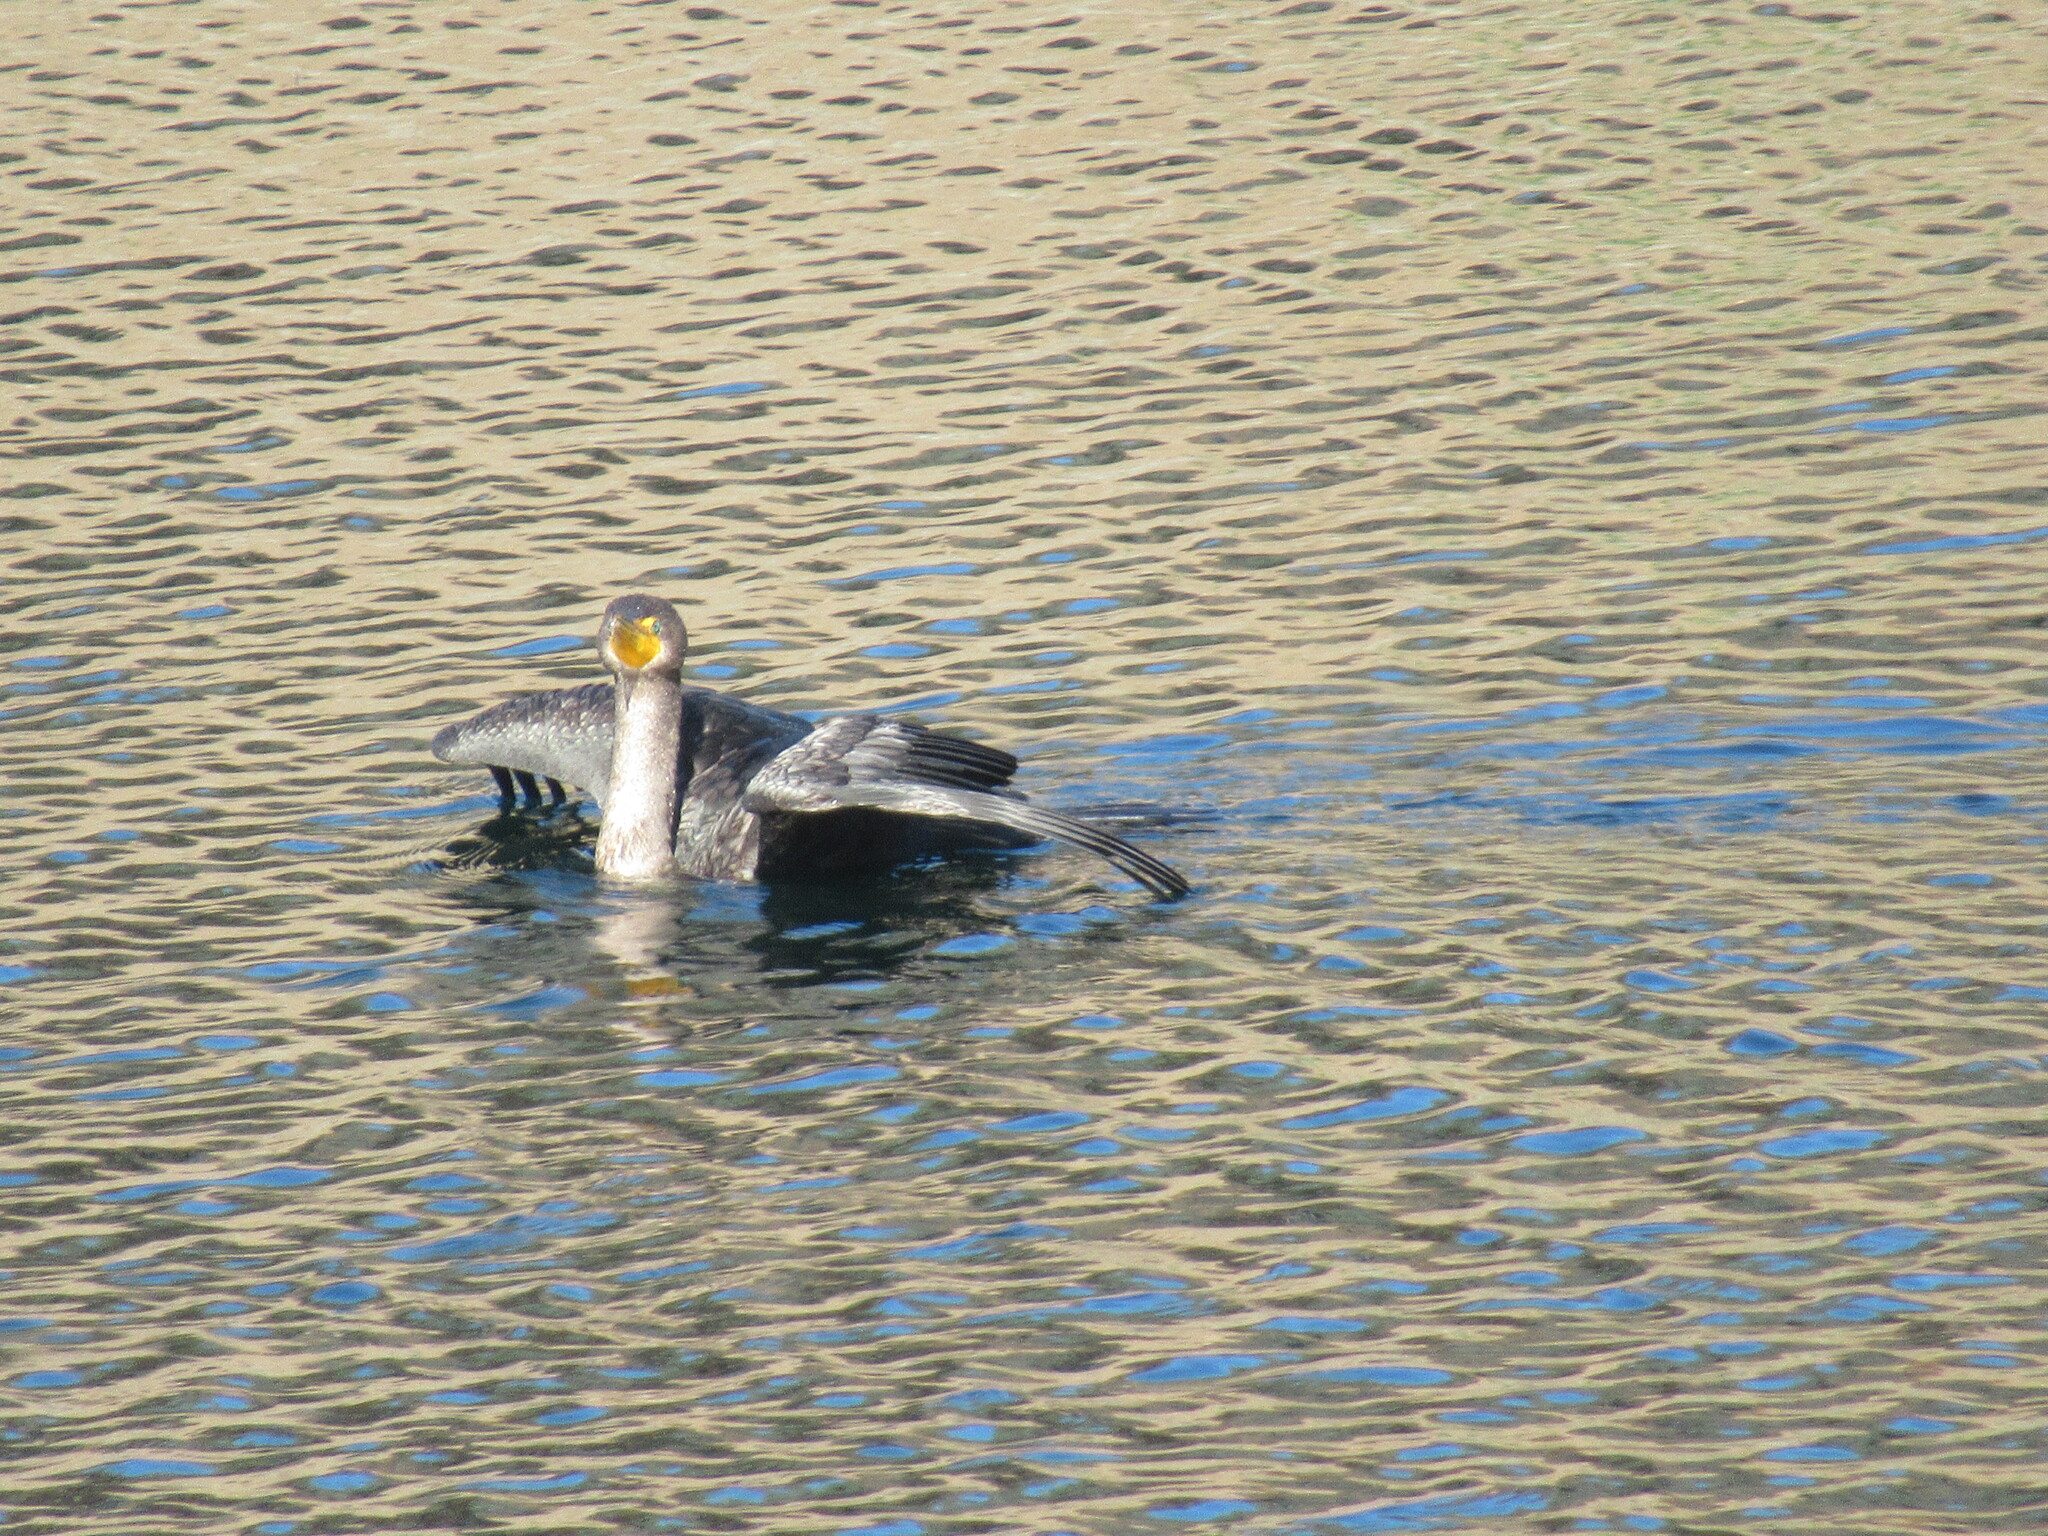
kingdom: Animalia
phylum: Chordata
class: Aves
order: Suliformes
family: Phalacrocoracidae
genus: Phalacrocorax
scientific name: Phalacrocorax auritus
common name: Double-crested cormorant
